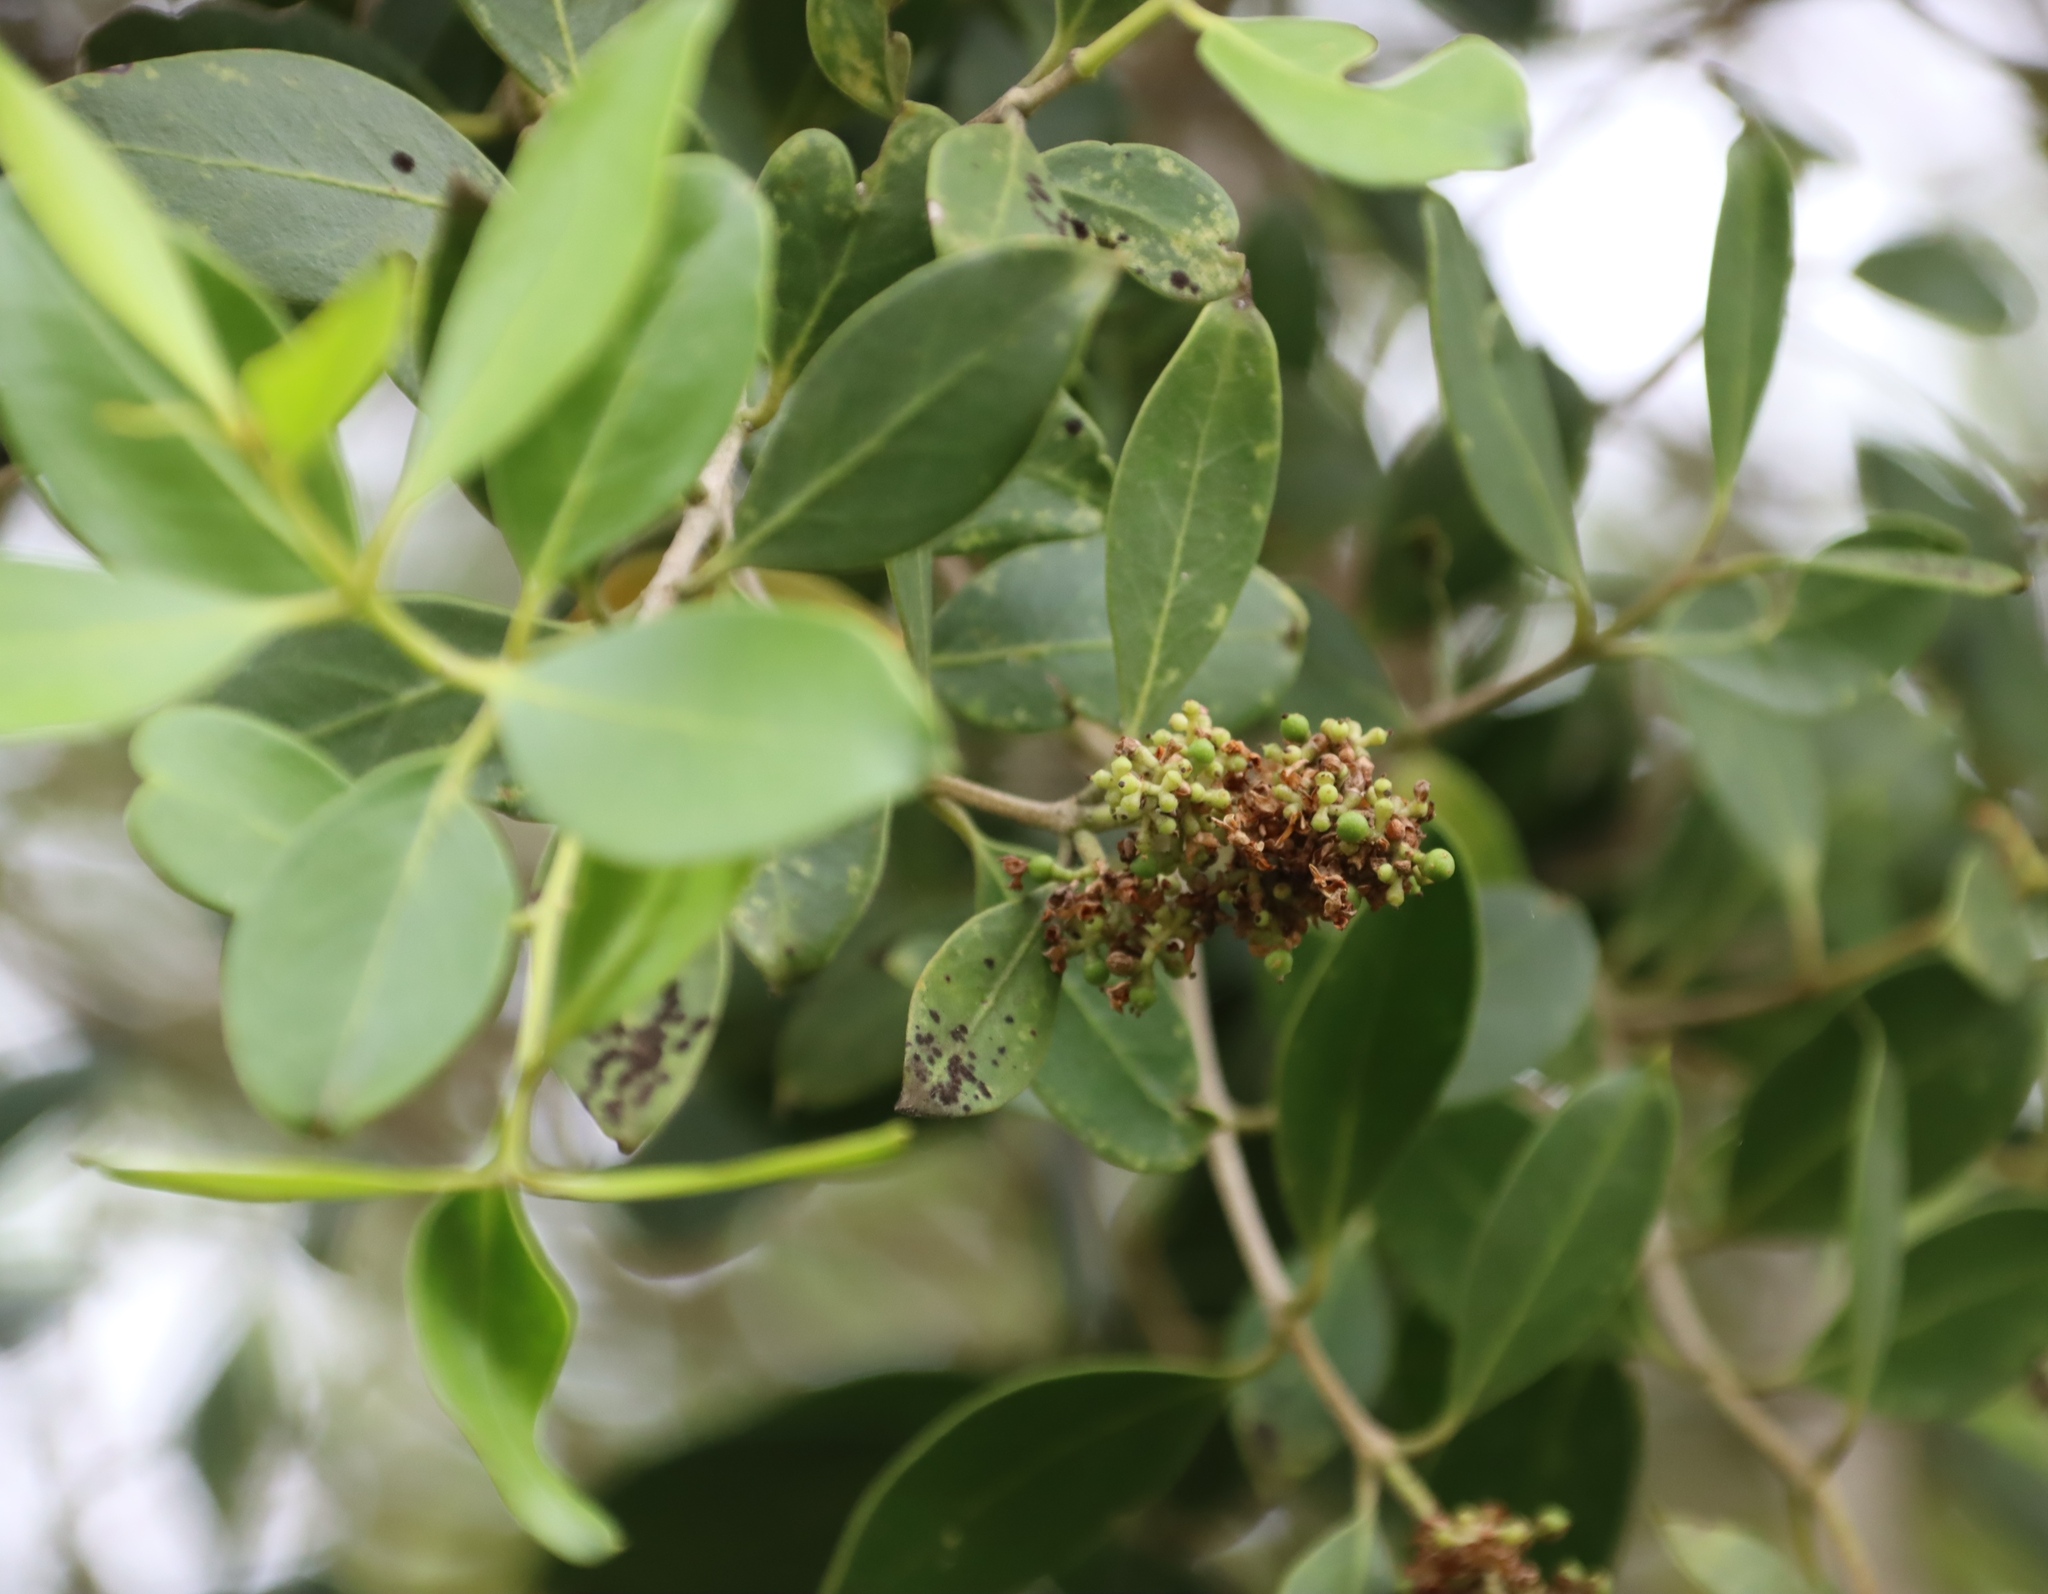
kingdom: Plantae
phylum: Tracheophyta
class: Magnoliopsida
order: Lamiales
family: Oleaceae
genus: Olea
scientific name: Olea capensis
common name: Black ironwood
